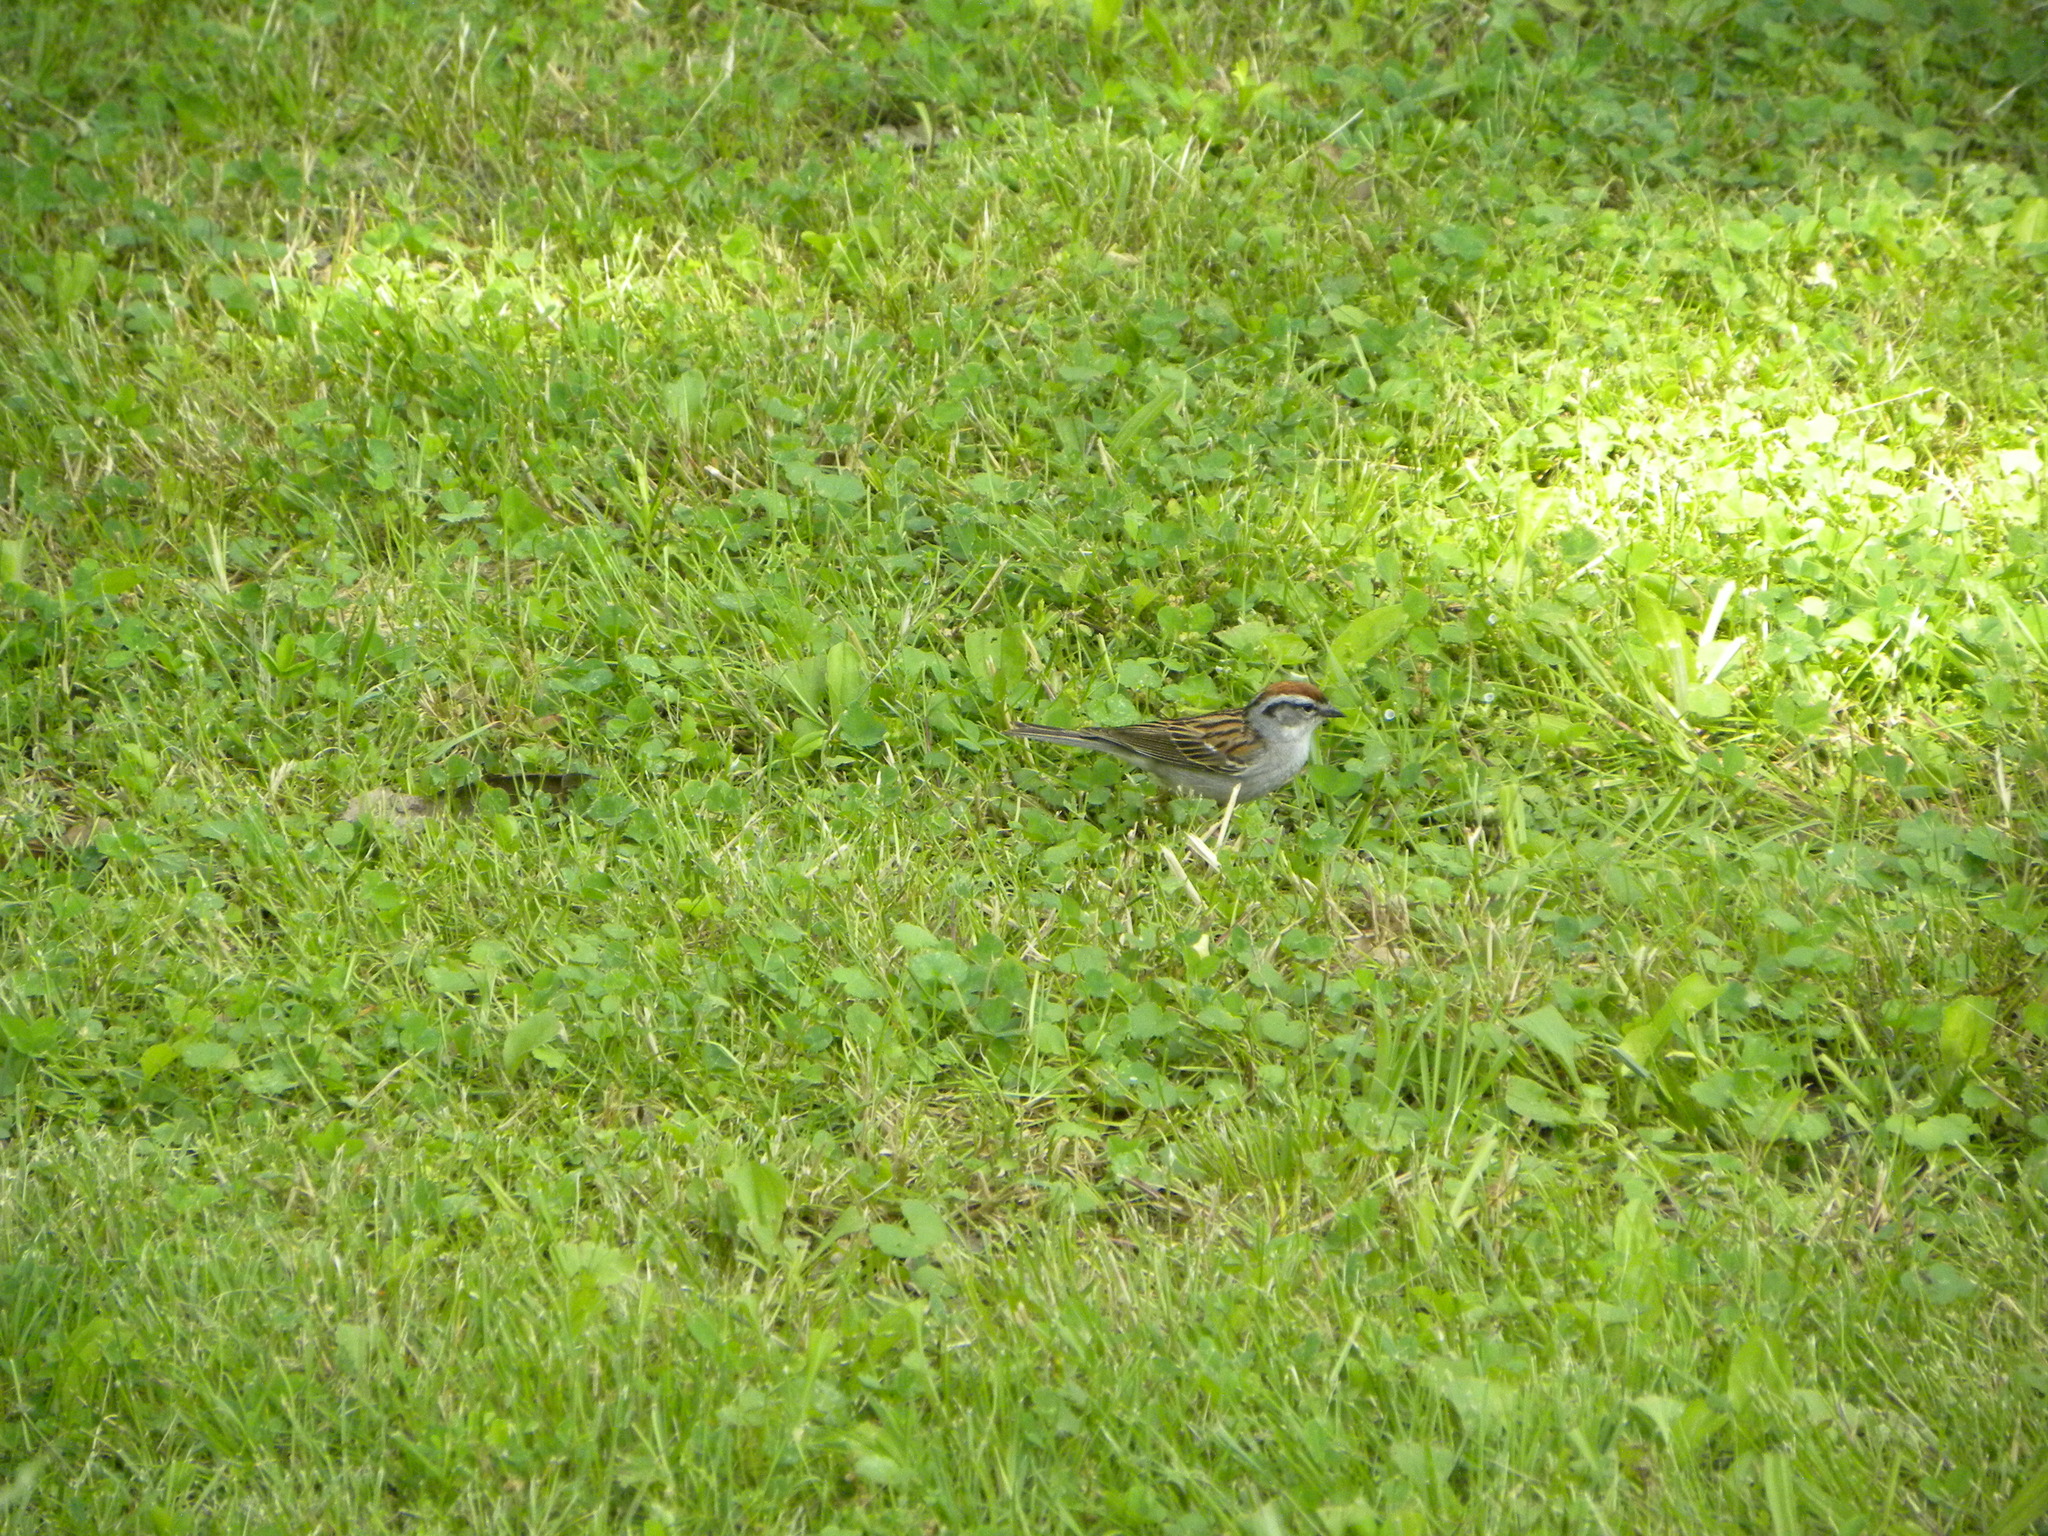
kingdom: Animalia
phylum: Chordata
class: Aves
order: Passeriformes
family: Passerellidae
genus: Spizella
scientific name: Spizella passerina
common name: Chipping sparrow
